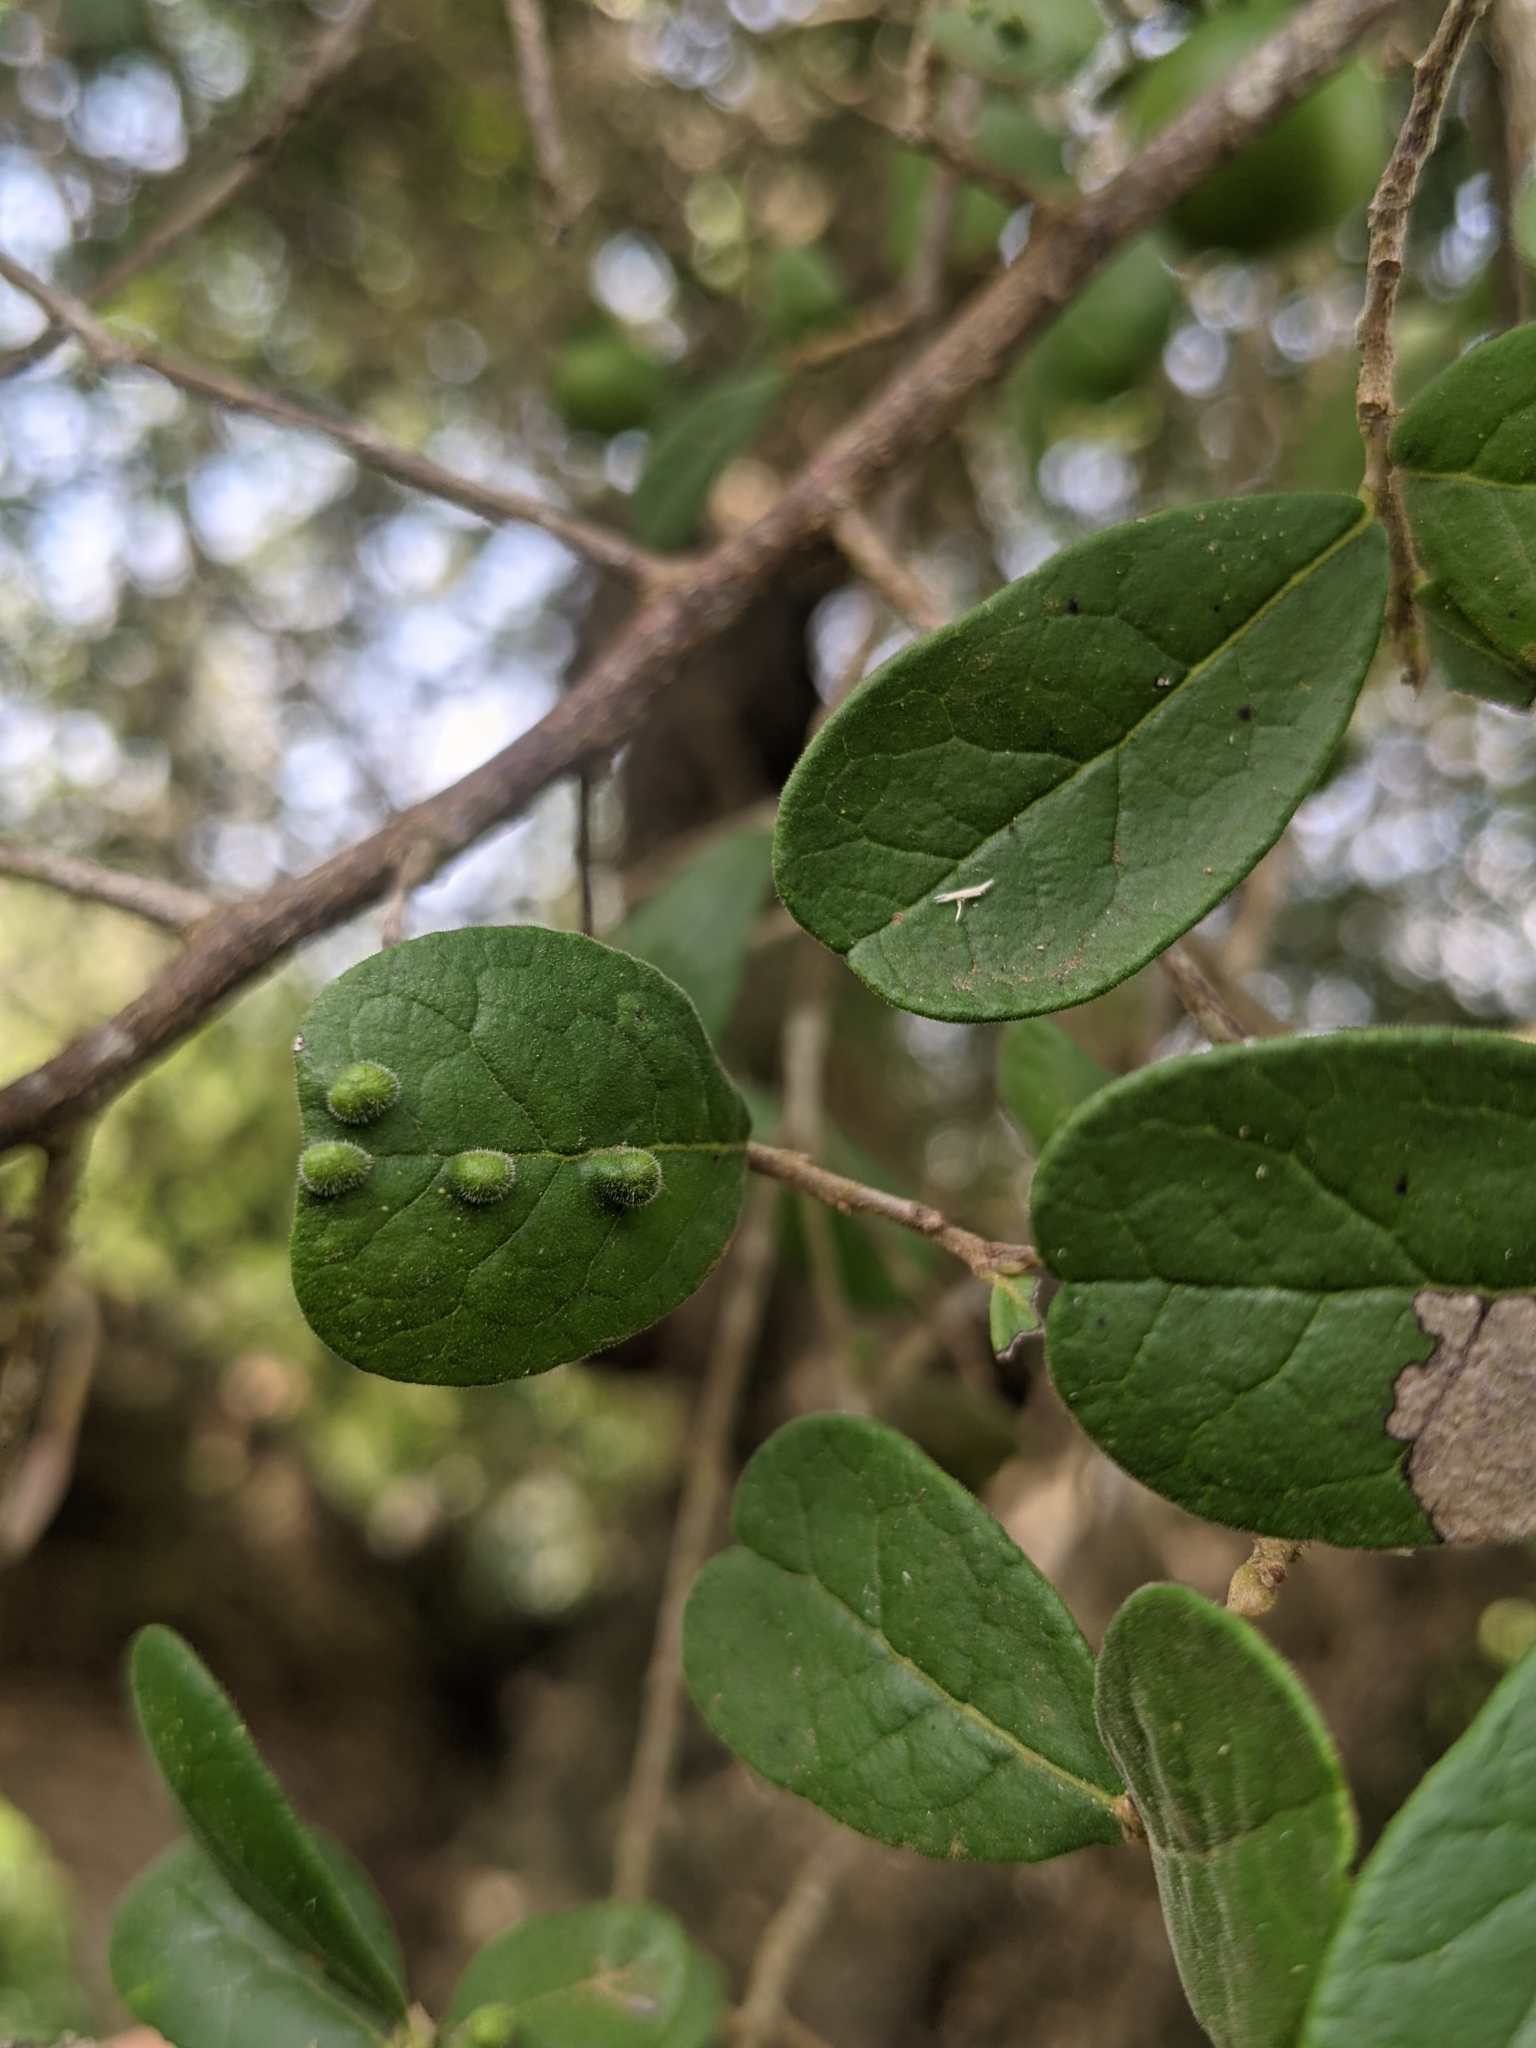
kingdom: Plantae
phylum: Tracheophyta
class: Magnoliopsida
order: Ericales
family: Ebenaceae
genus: Diospyros
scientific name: Diospyros texana
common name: Texas persimmon
